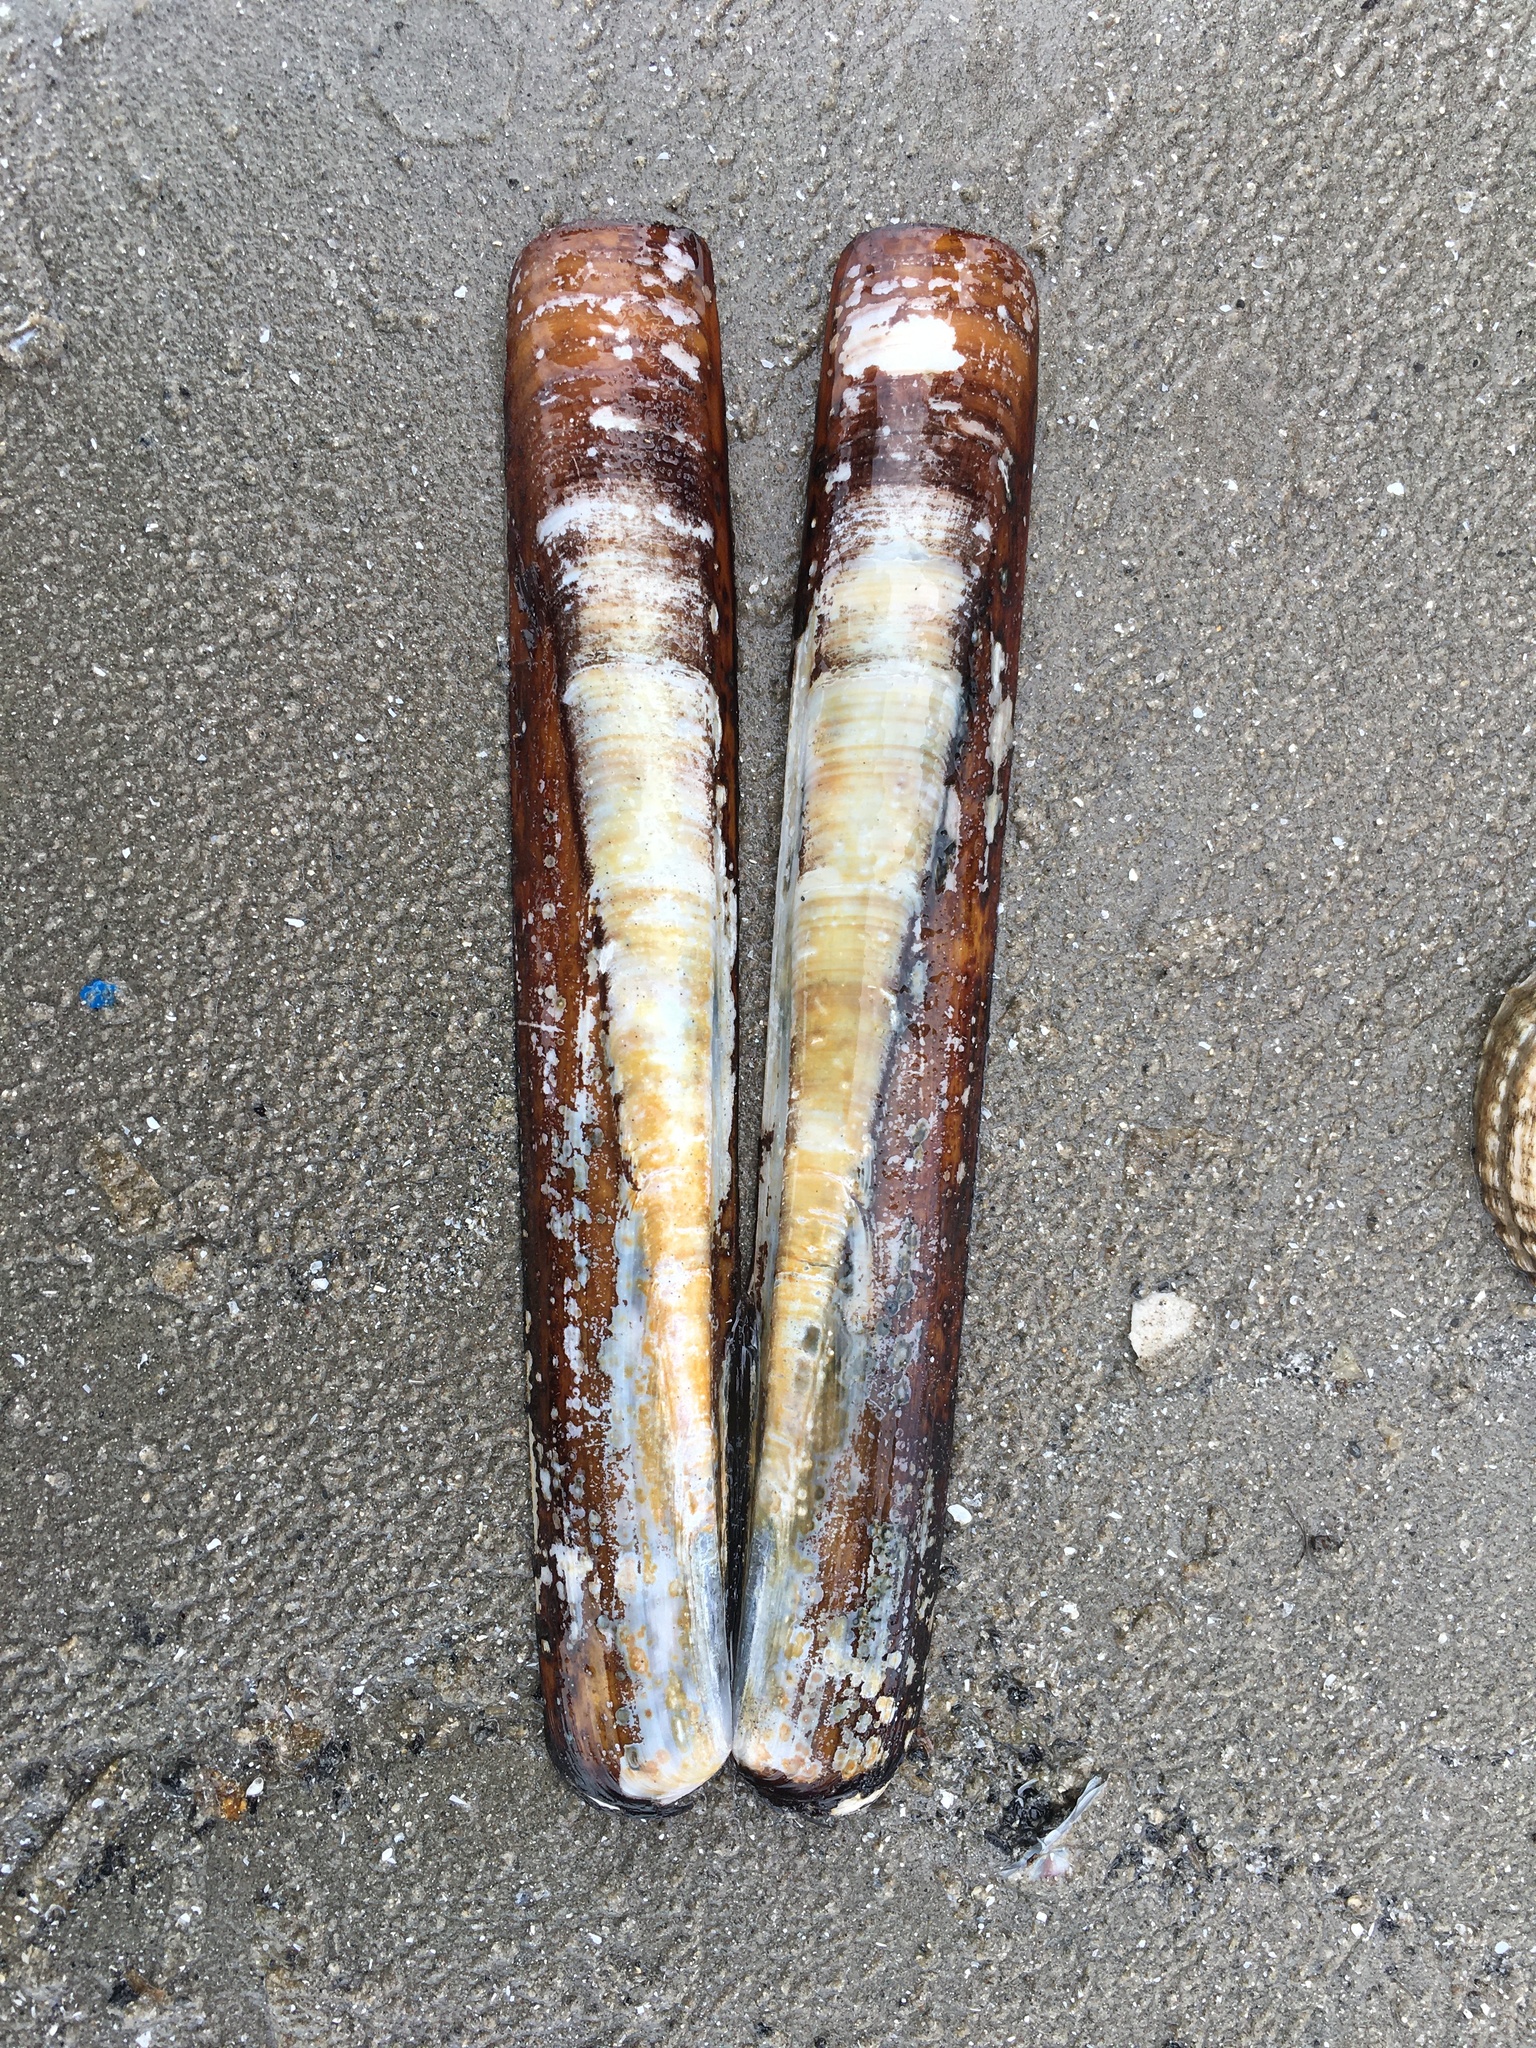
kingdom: Animalia
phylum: Mollusca
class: Bivalvia
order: Adapedonta
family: Pharidae
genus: Ensis
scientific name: Ensis siliqua
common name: Pod razor shell
